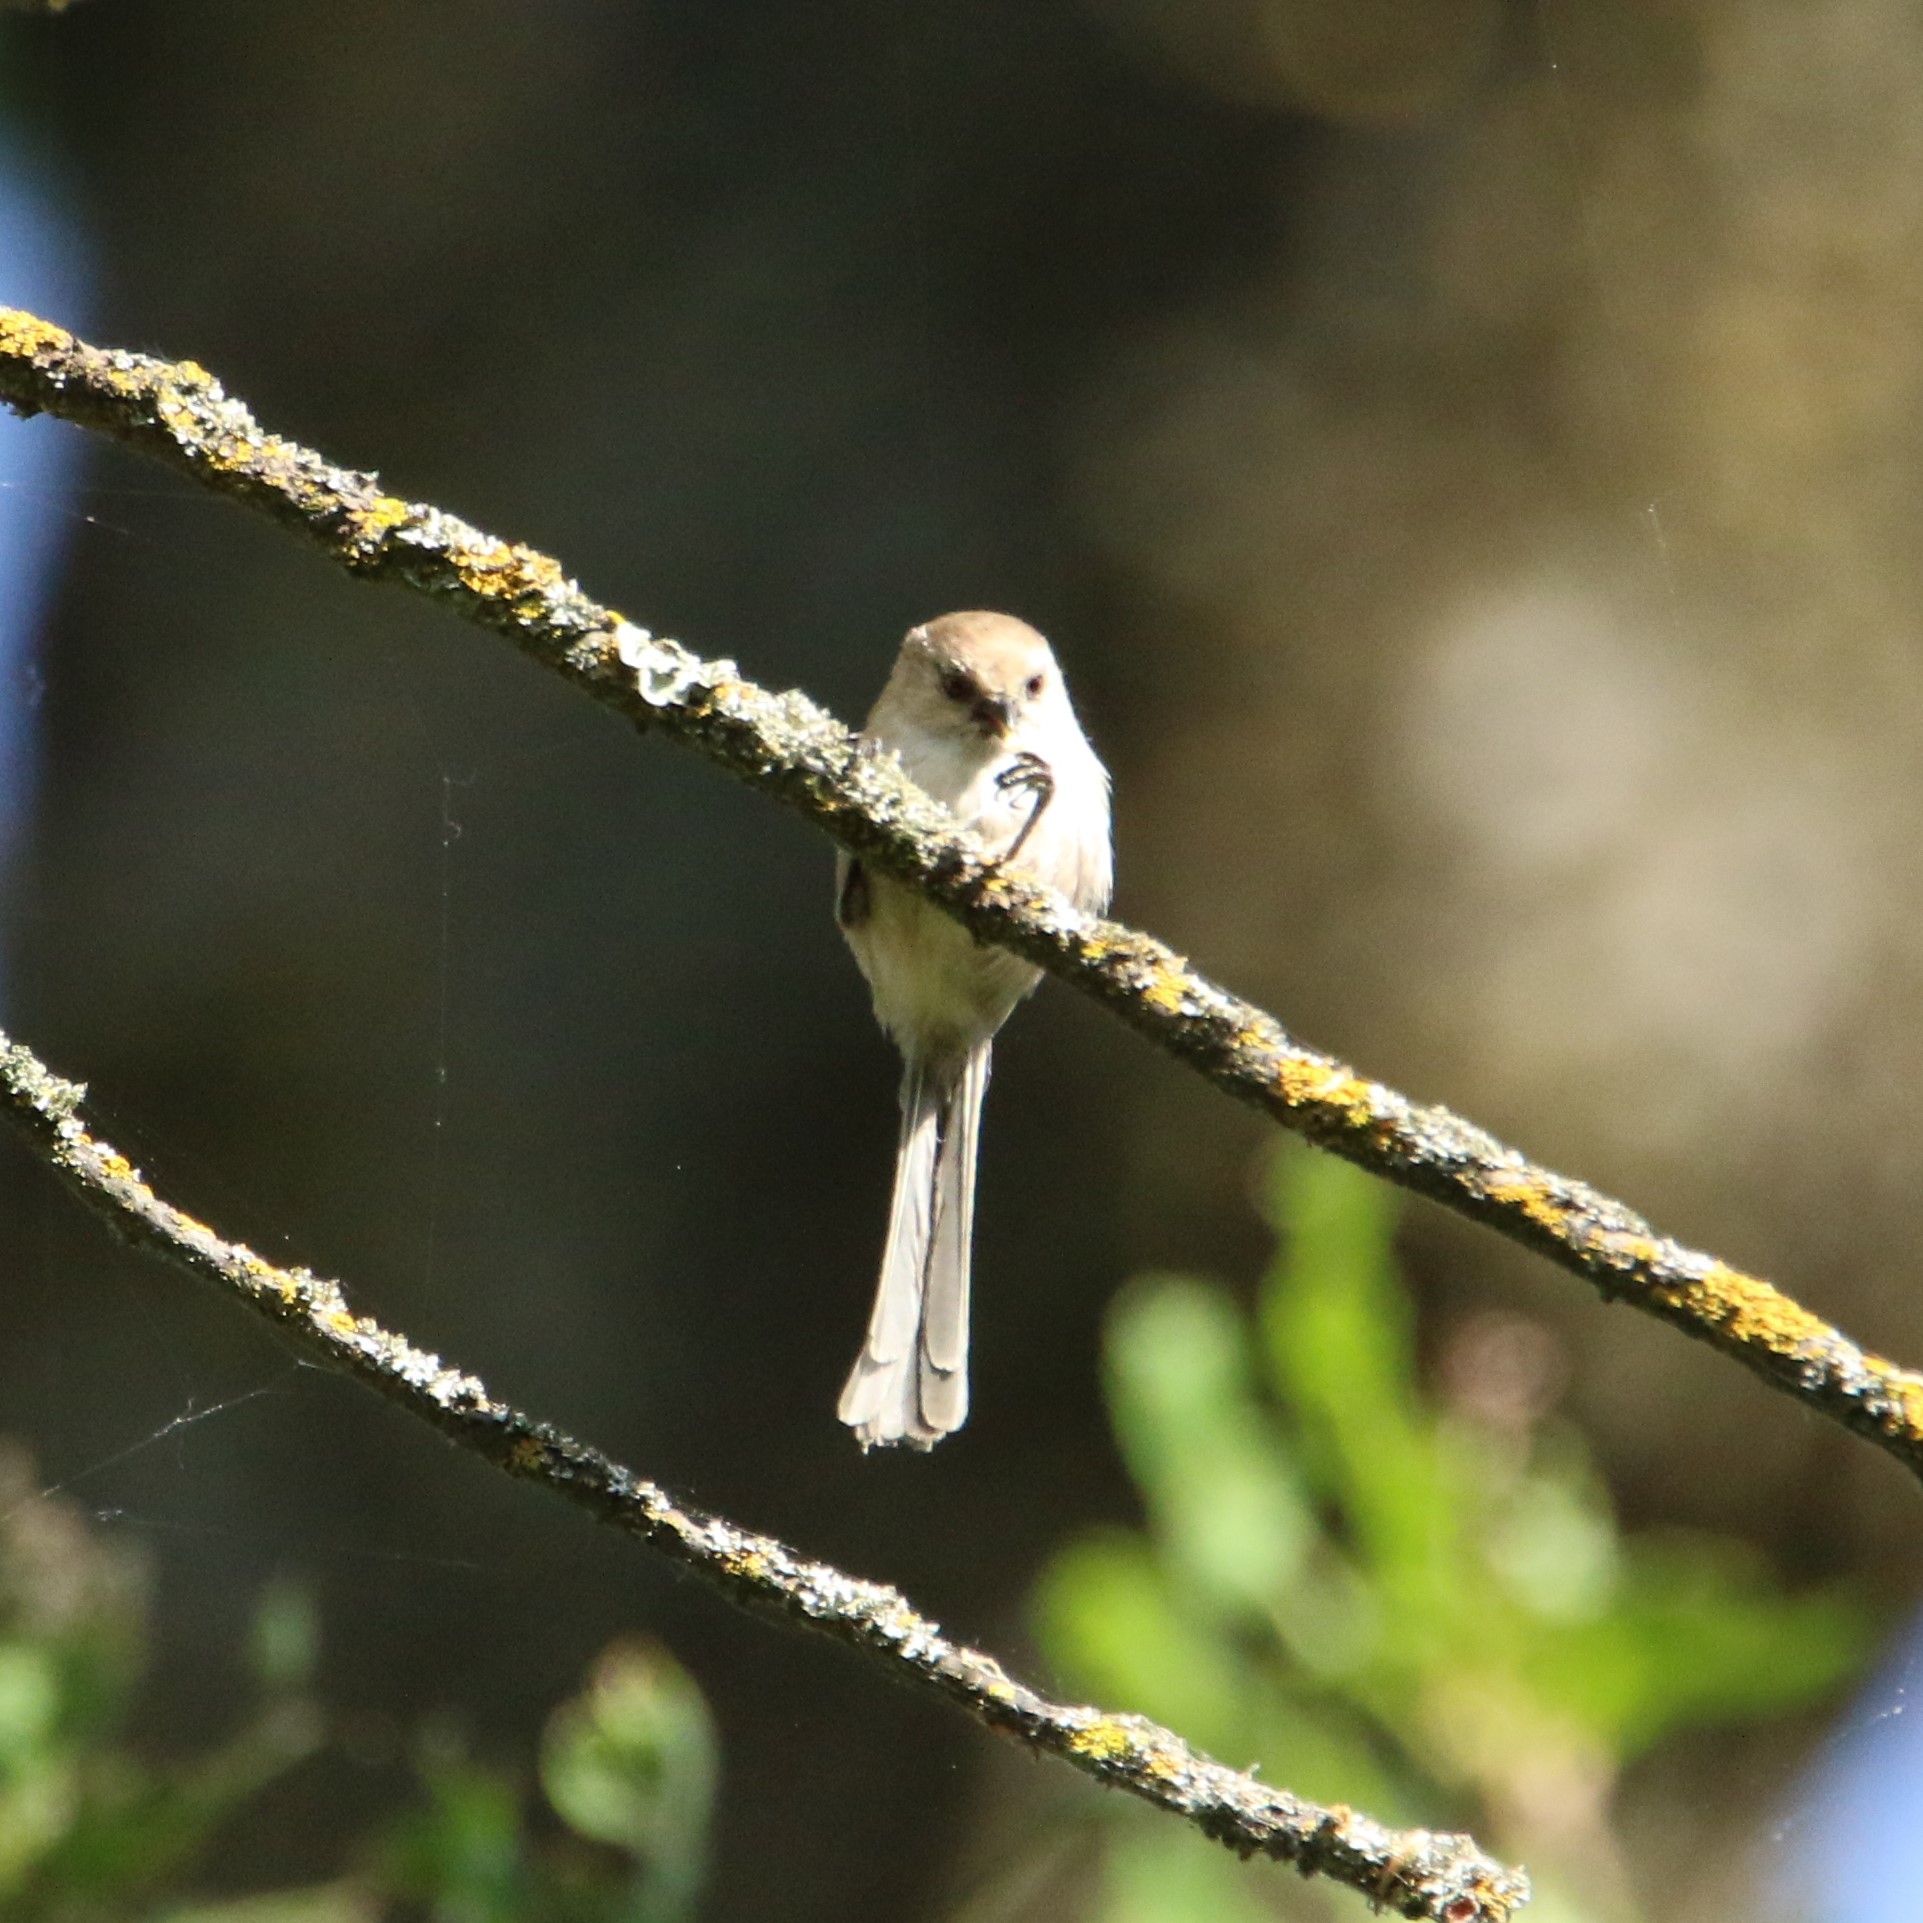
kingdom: Animalia
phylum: Chordata
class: Aves
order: Passeriformes
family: Aegithalidae
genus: Psaltriparus
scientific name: Psaltriparus minimus
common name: American bushtit
